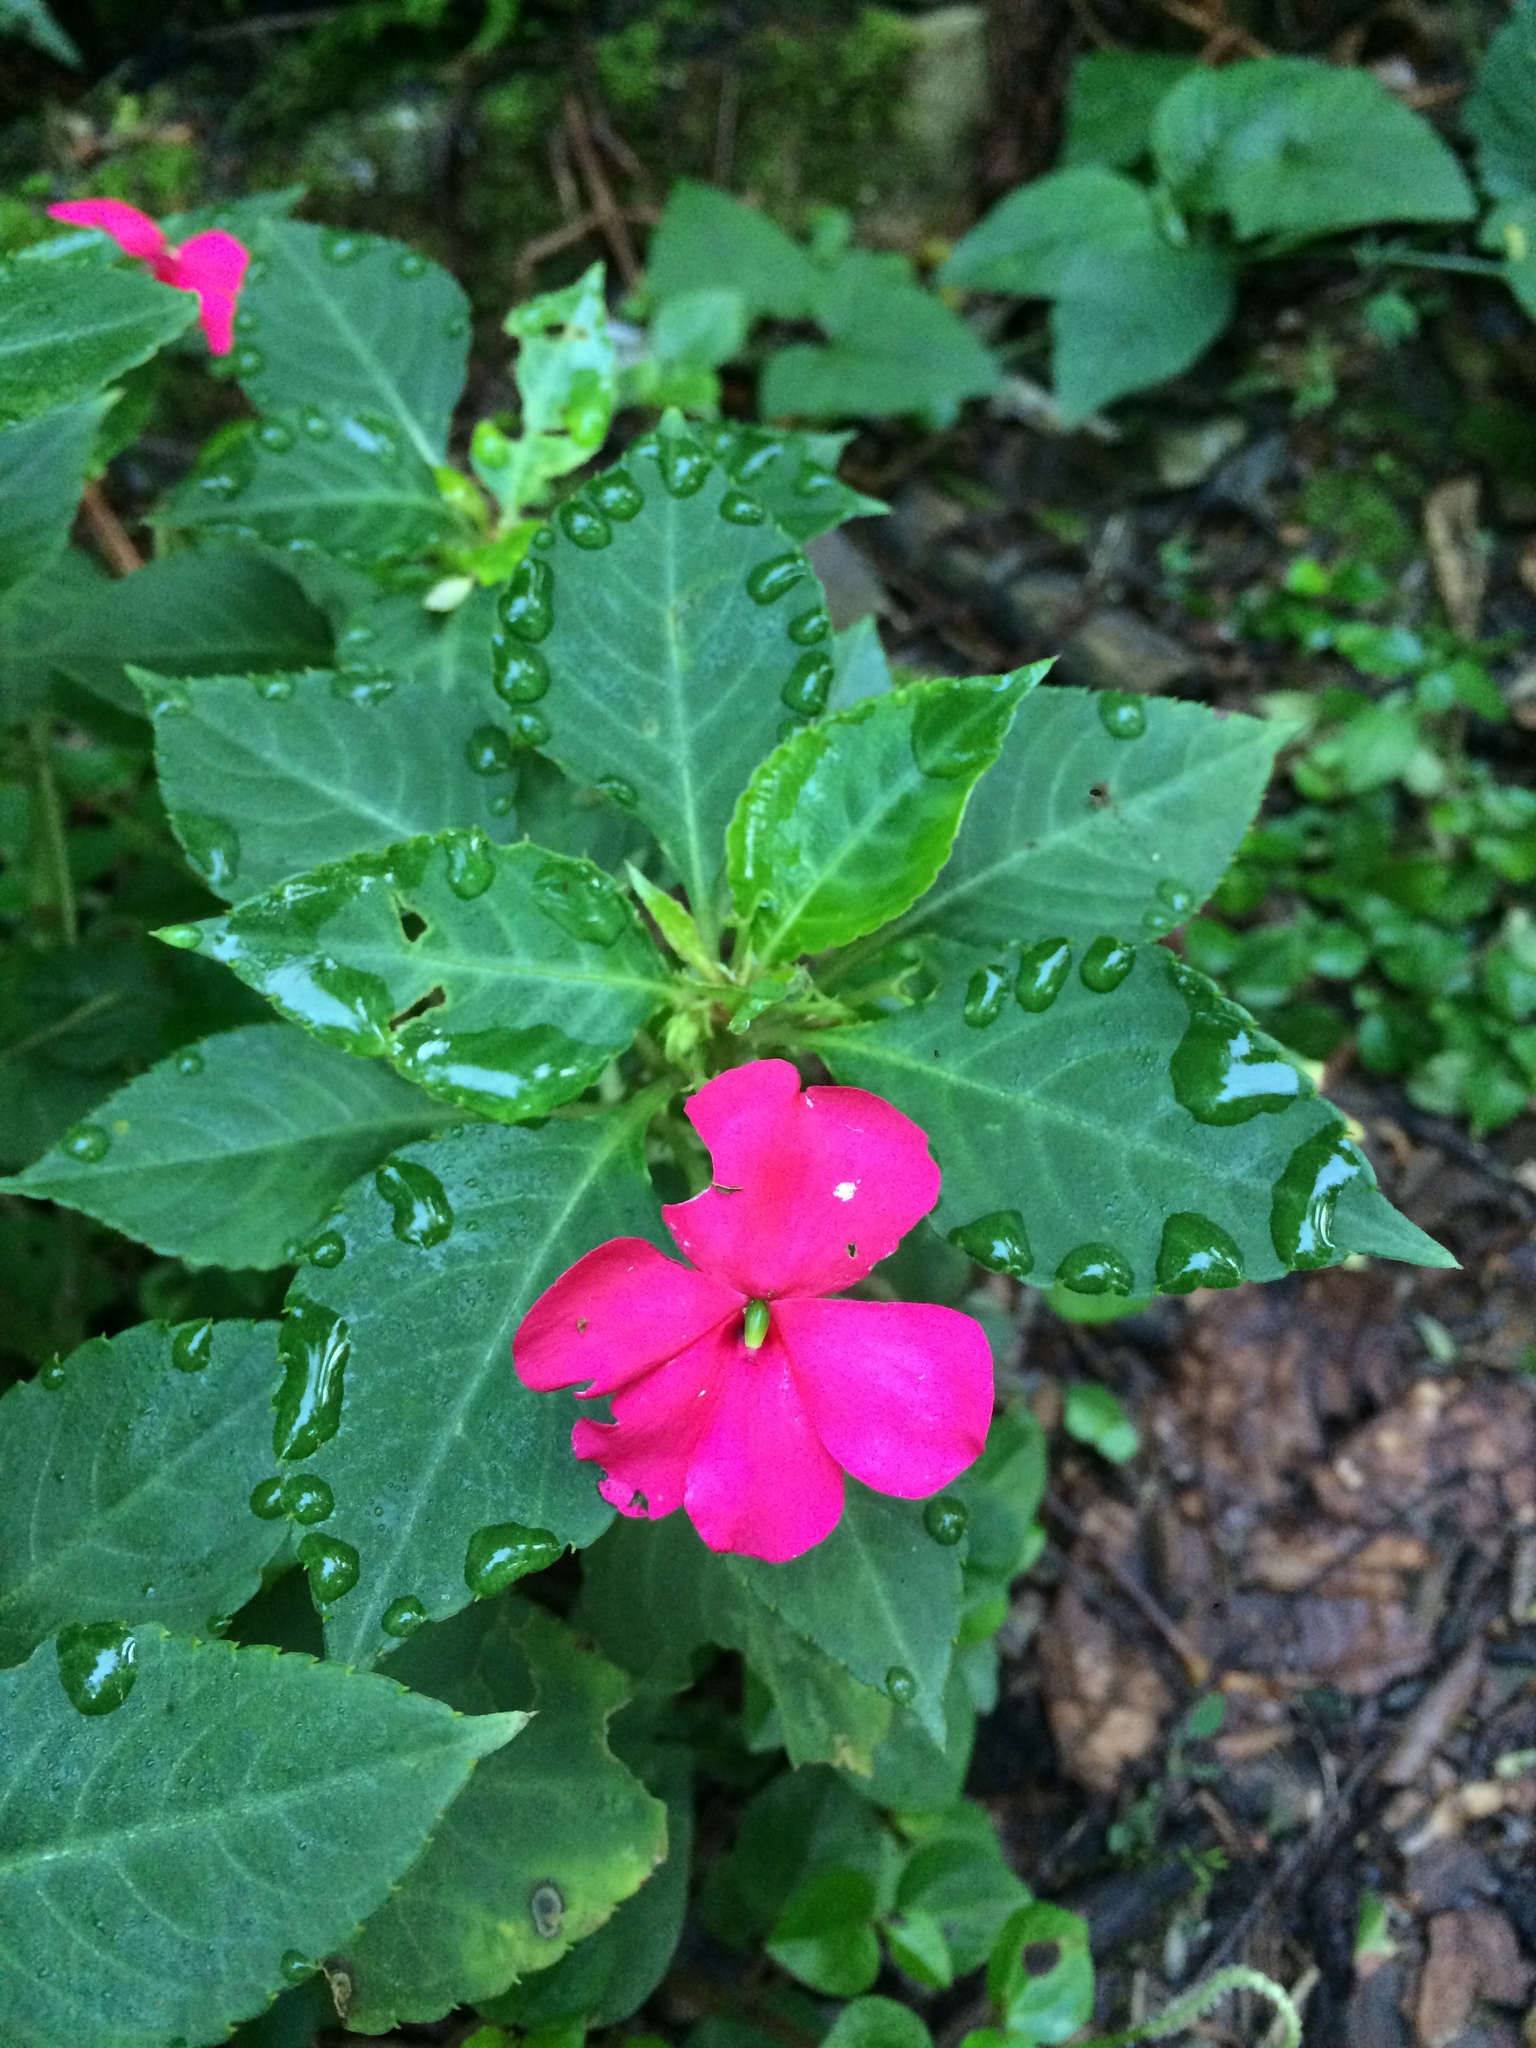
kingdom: Plantae
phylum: Tracheophyta
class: Magnoliopsida
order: Ericales
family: Balsaminaceae
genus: Impatiens
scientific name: Impatiens walleriana
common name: Buzzy lizzy
